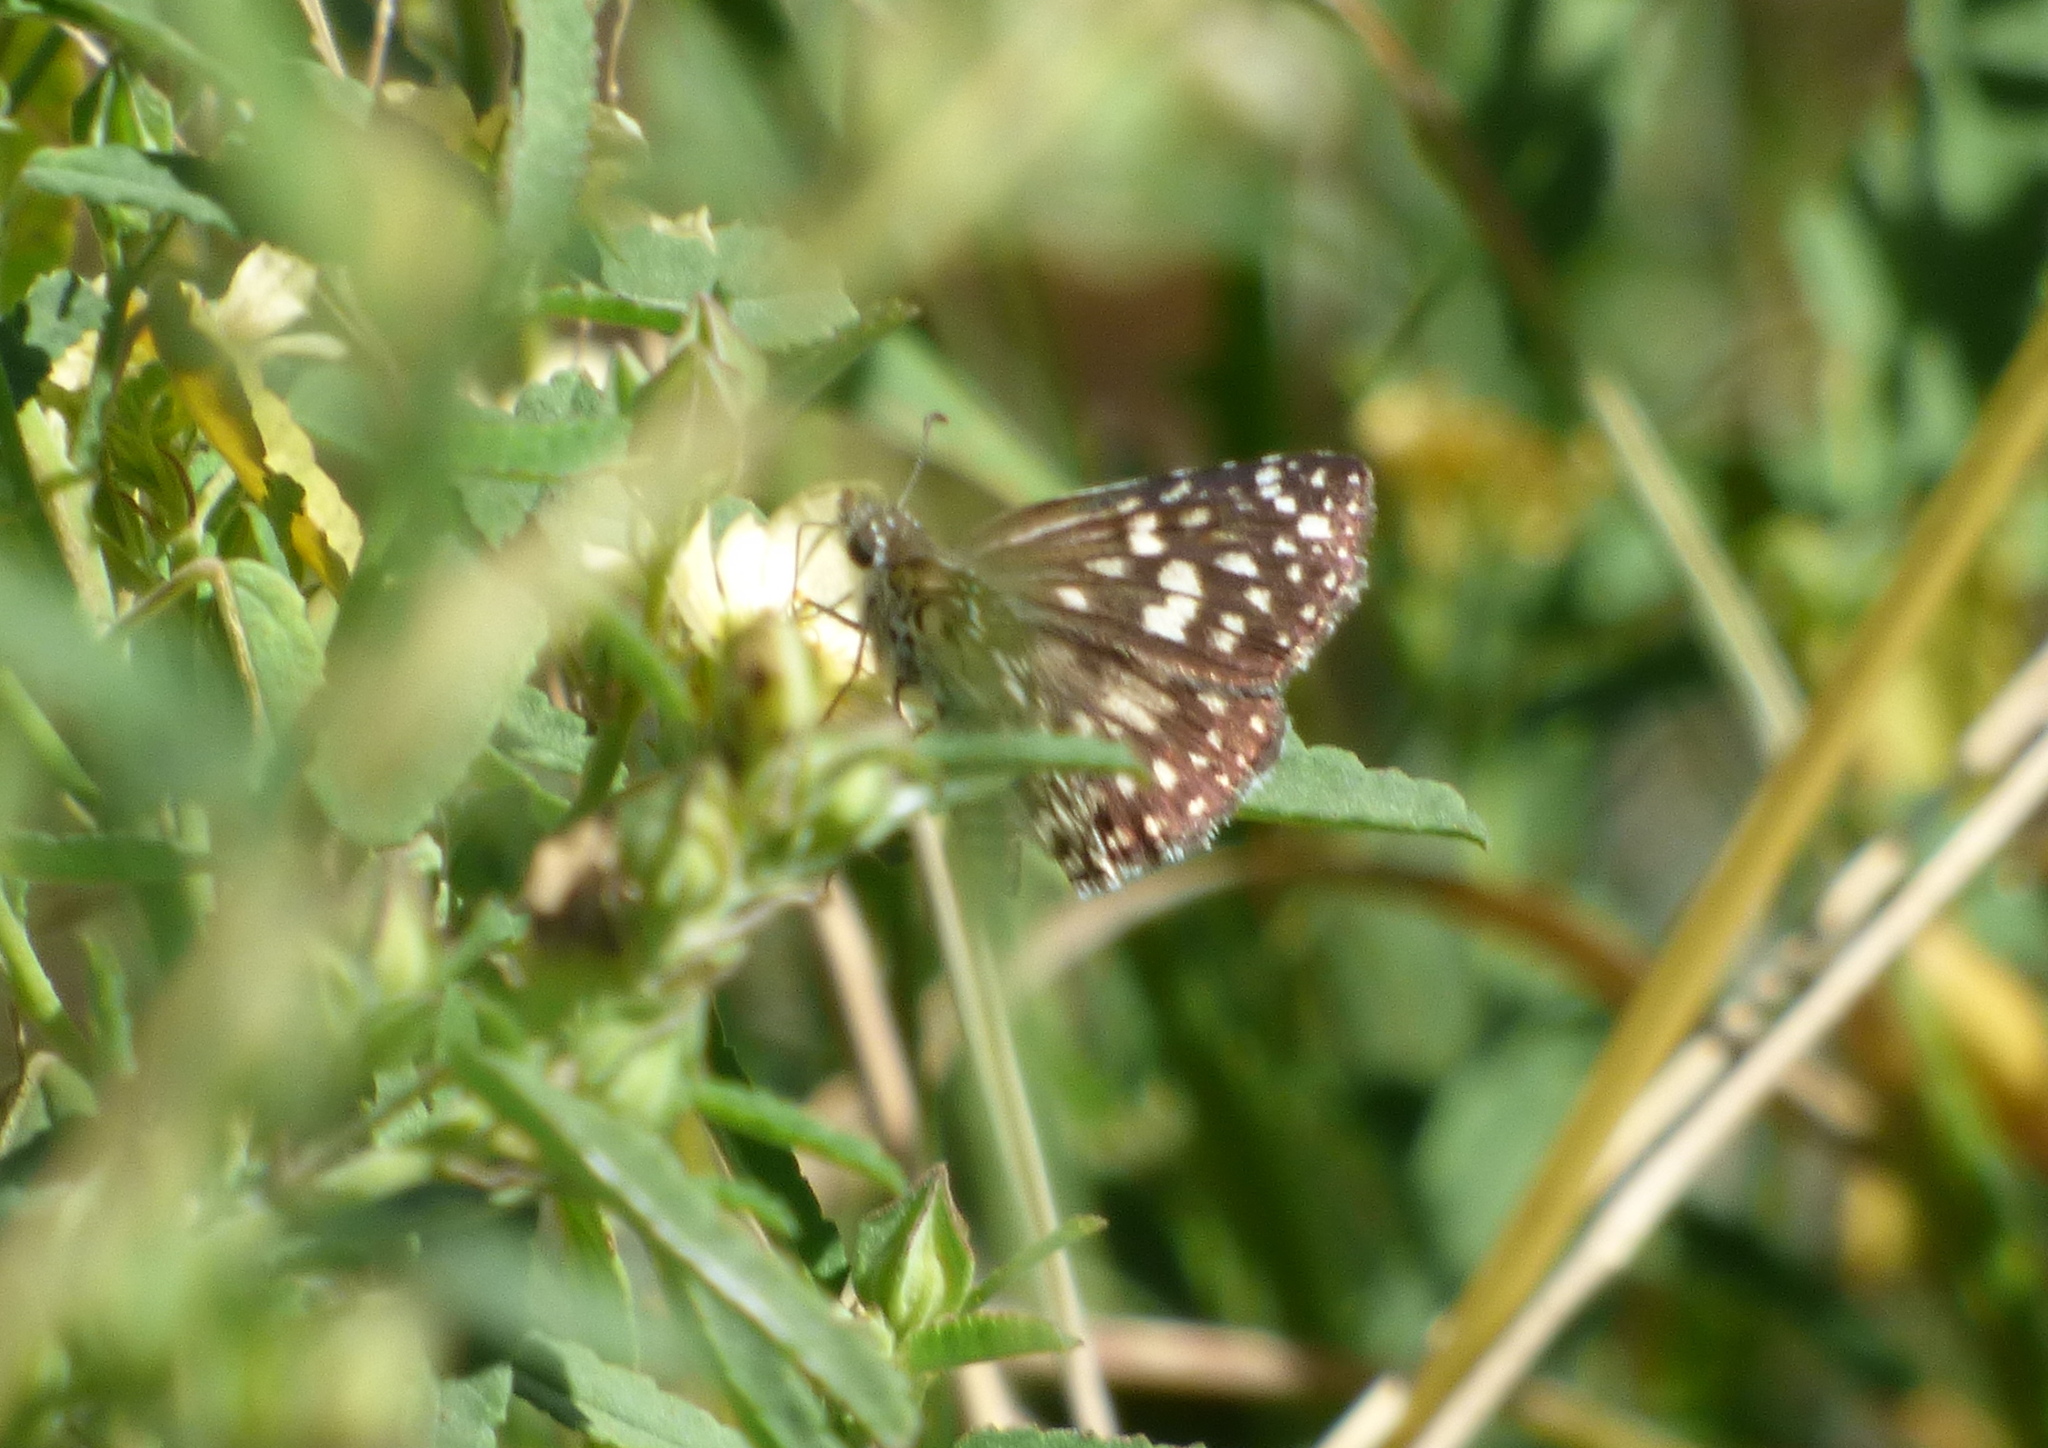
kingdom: Animalia
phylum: Arthropoda
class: Insecta
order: Lepidoptera
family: Hesperiidae
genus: Pyrgus
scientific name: Pyrgus oileus
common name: Tropical checkered-skipper
